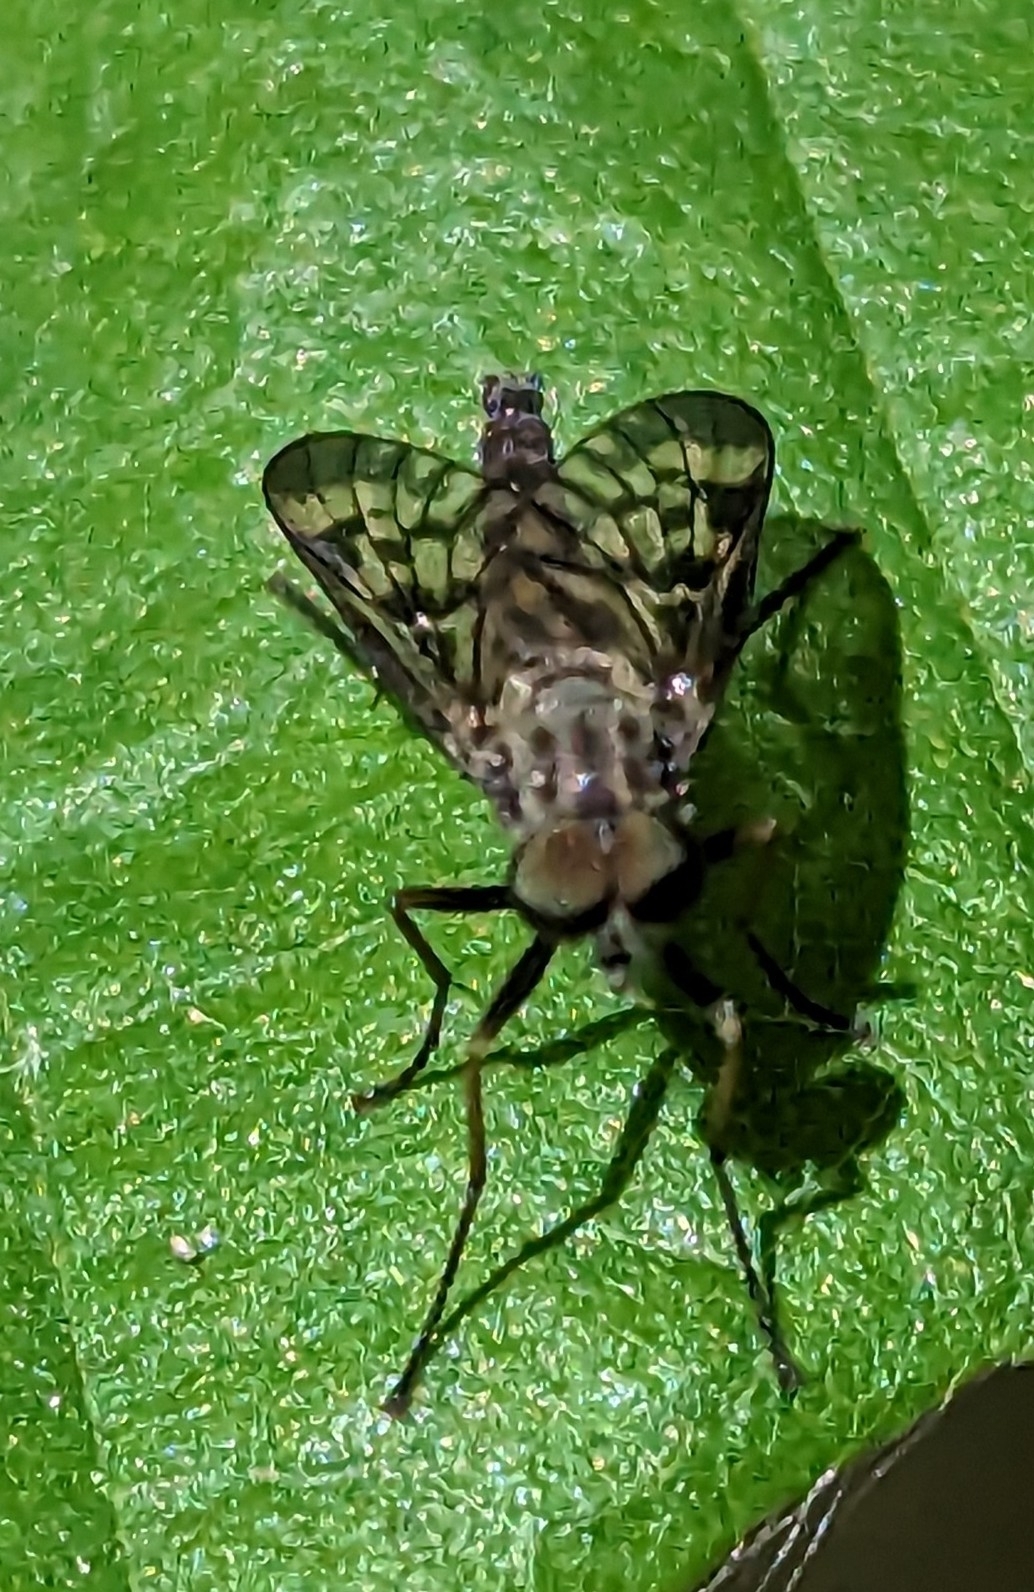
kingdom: Animalia
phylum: Arthropoda
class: Insecta
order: Diptera
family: Rhagionidae
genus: Rhagio
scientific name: Rhagio punctipennis
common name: Lesser variegated snipe fly
